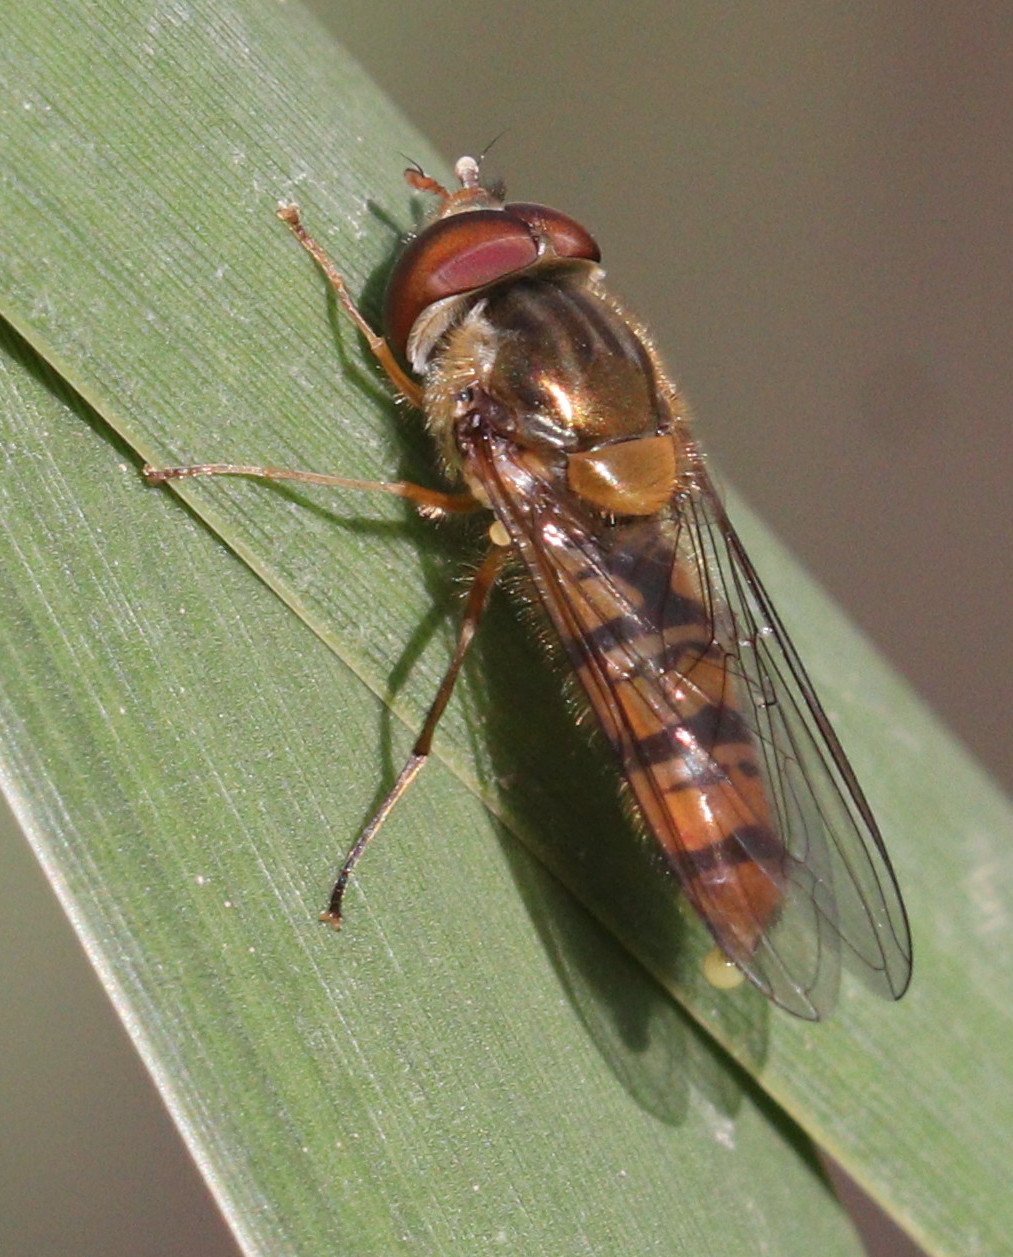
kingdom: Animalia
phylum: Arthropoda
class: Insecta
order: Diptera
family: Syrphidae
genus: Episyrphus
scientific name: Episyrphus balteatus
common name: Marmalade hoverfly
